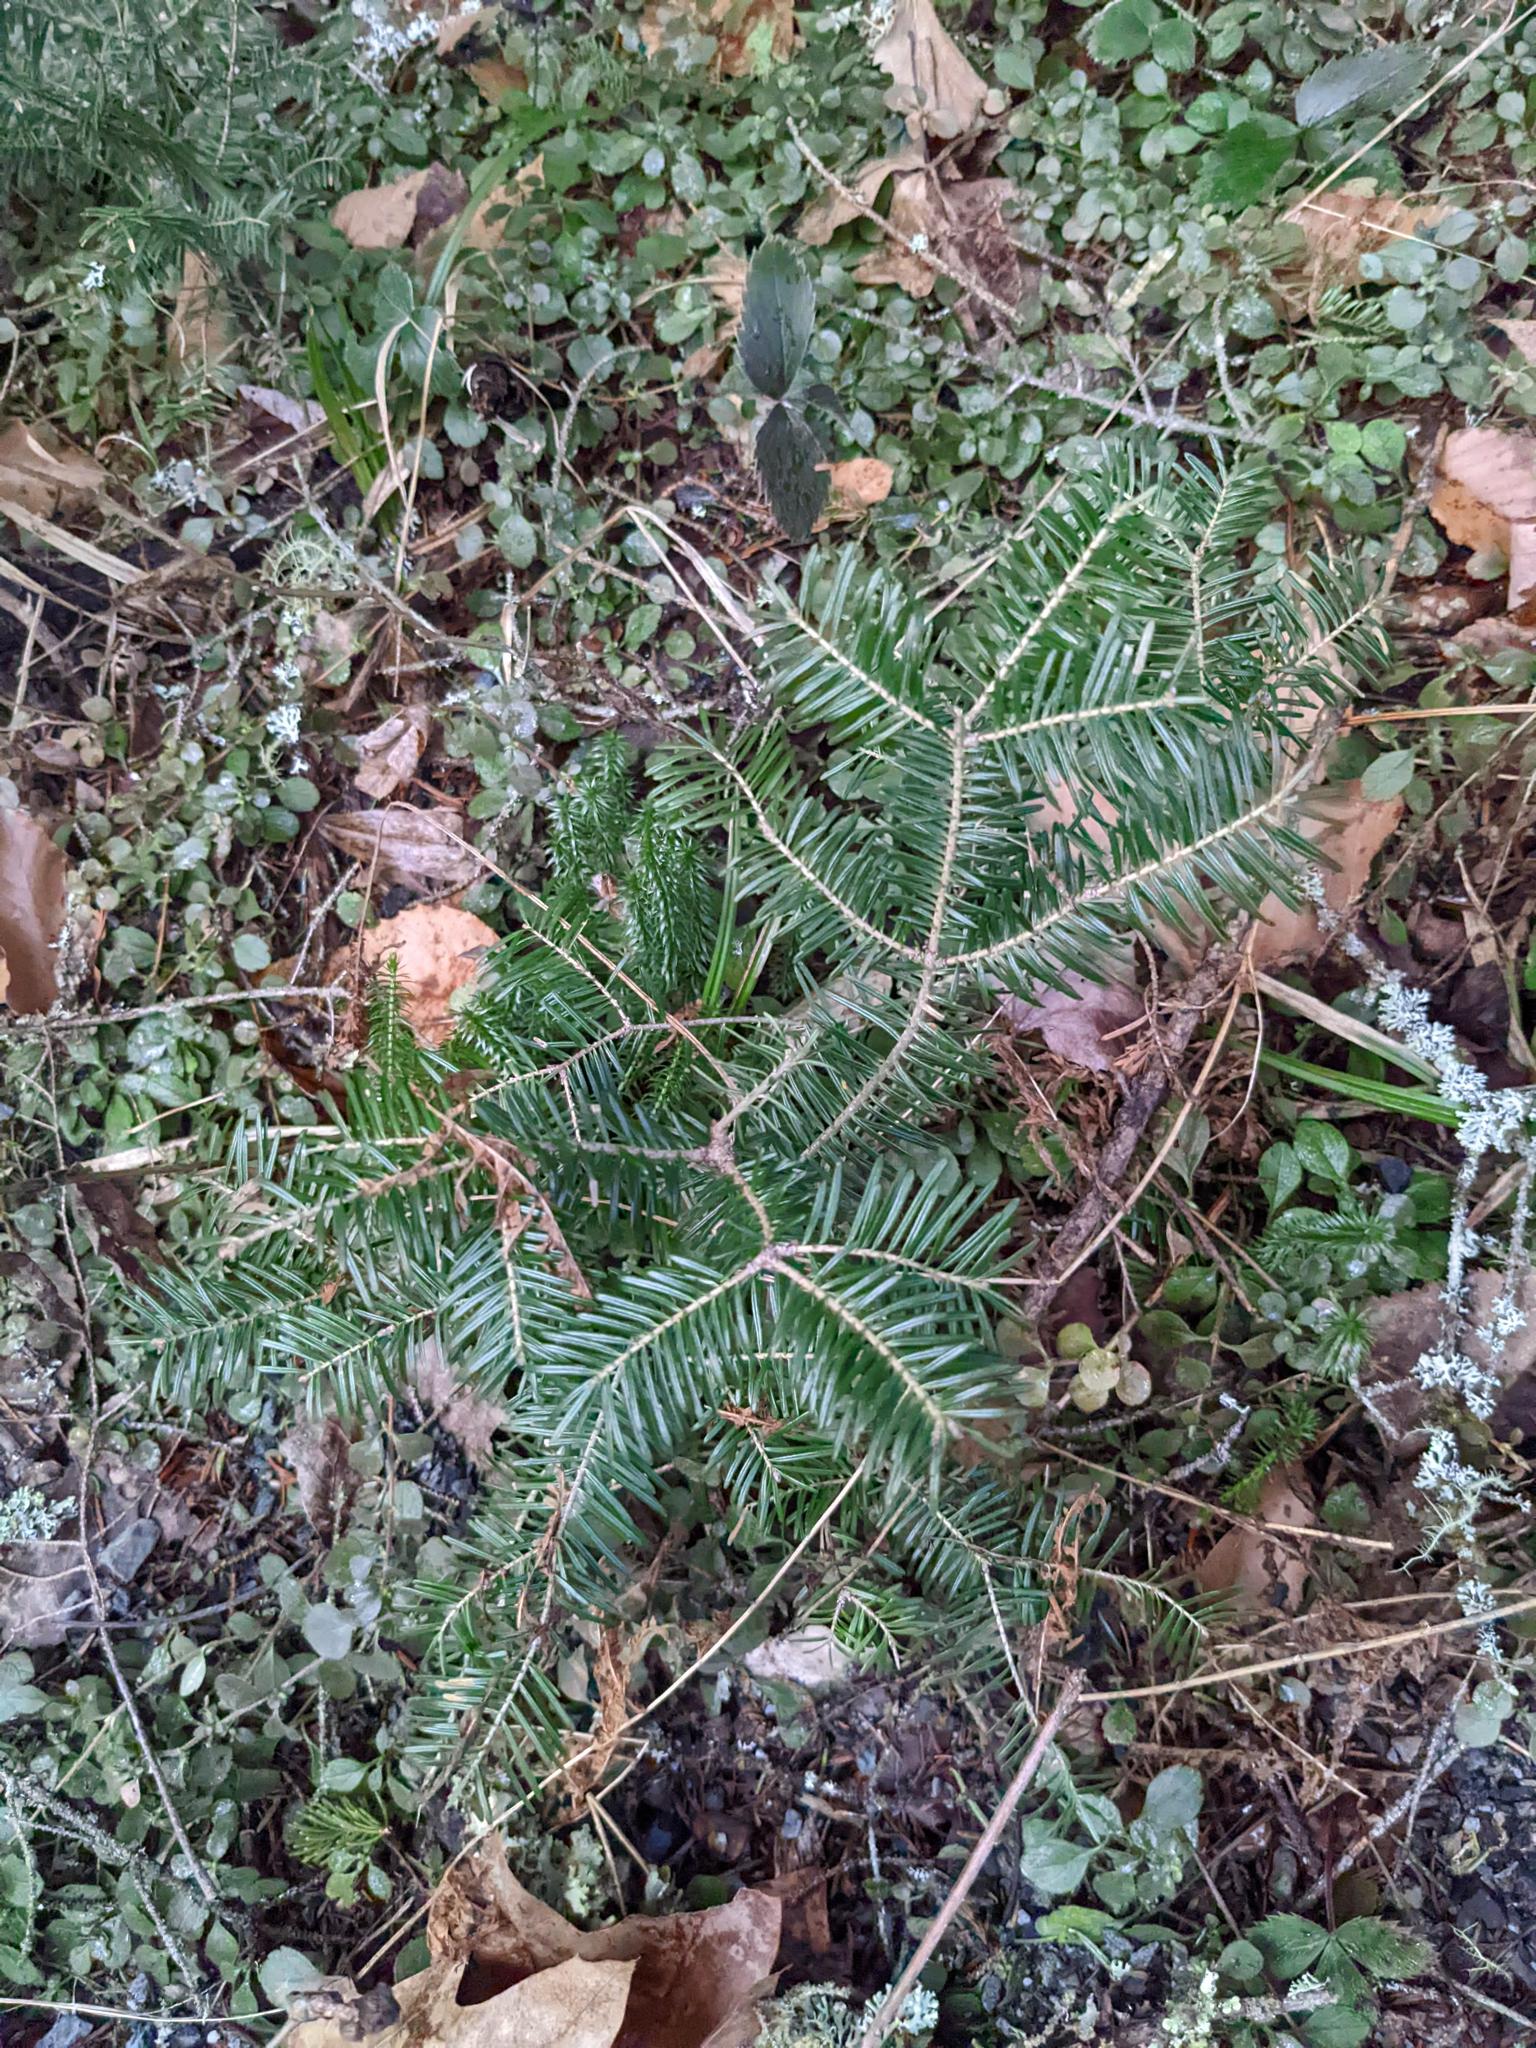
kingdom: Plantae
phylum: Tracheophyta
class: Pinopsida
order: Pinales
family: Pinaceae
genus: Abies
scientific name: Abies balsamea
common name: Balsam fir
